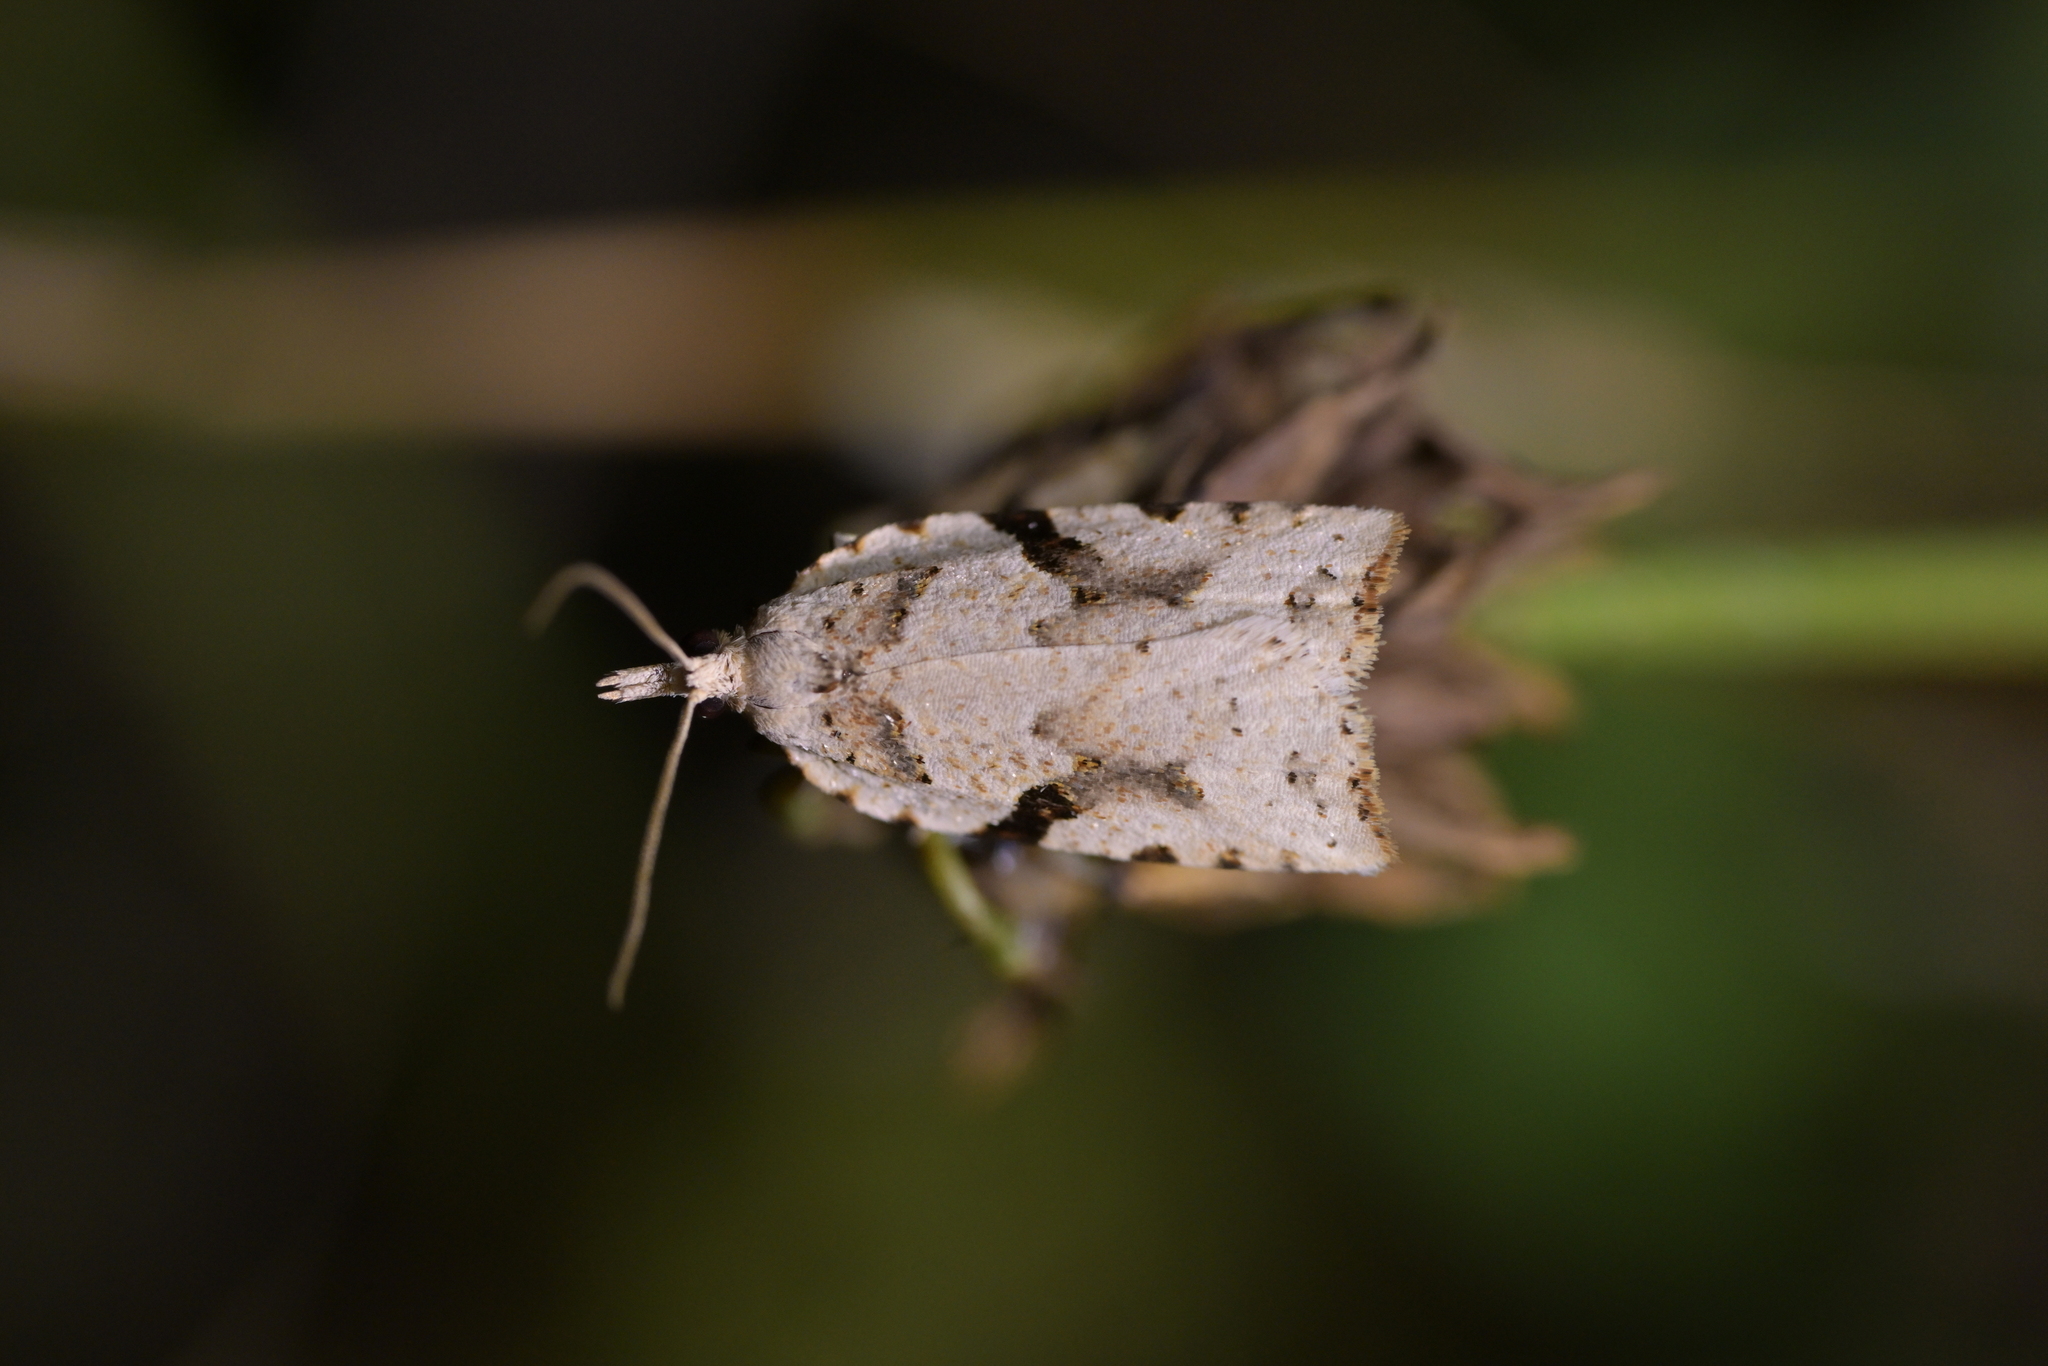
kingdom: Animalia
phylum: Arthropoda
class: Insecta
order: Lepidoptera
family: Tortricidae
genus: Leucotenes
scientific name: Leucotenes coprosmae
